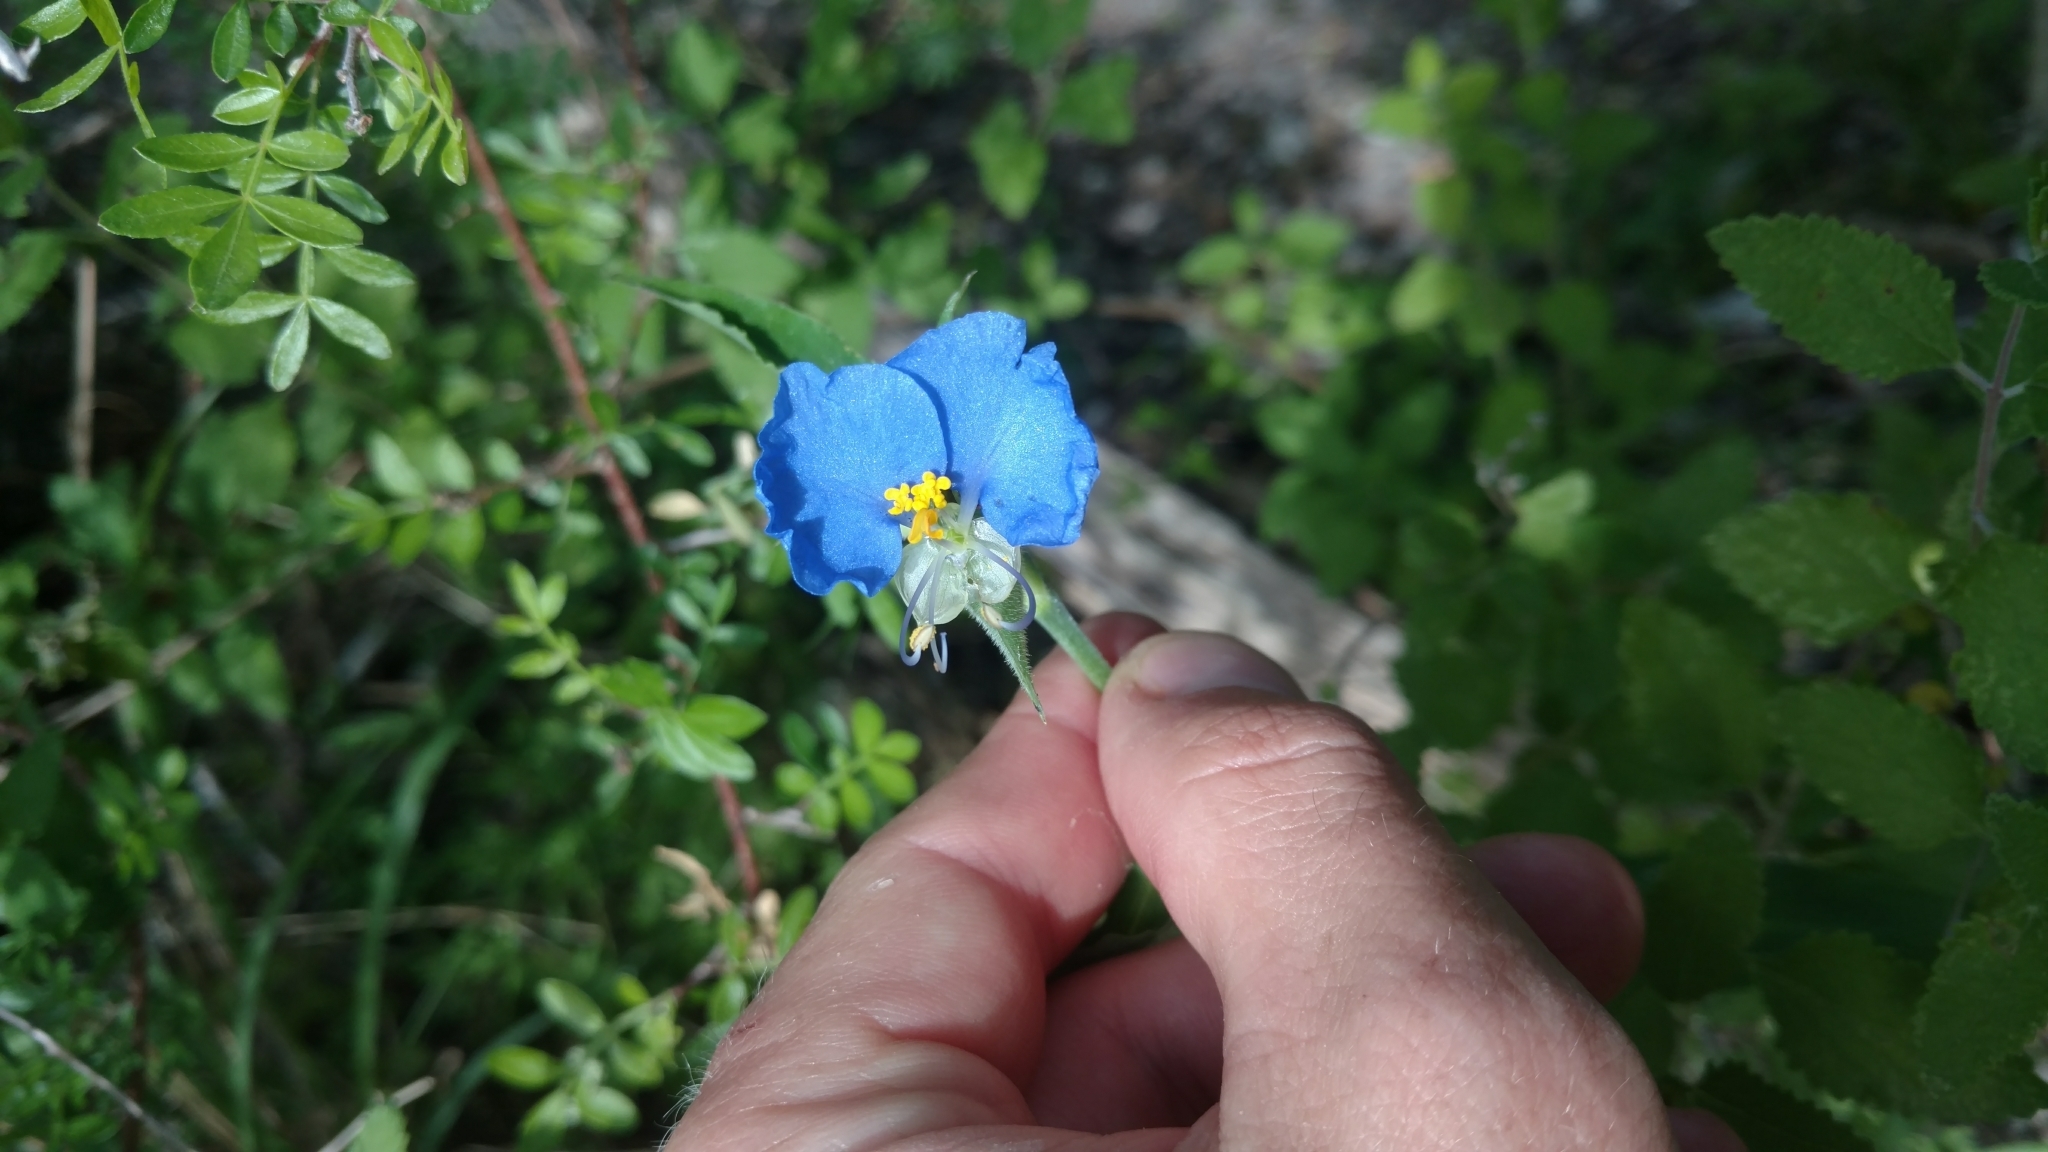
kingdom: Plantae
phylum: Tracheophyta
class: Liliopsida
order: Commelinales
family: Commelinaceae
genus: Commelina
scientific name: Commelina erecta
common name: Blousel blommetjie
